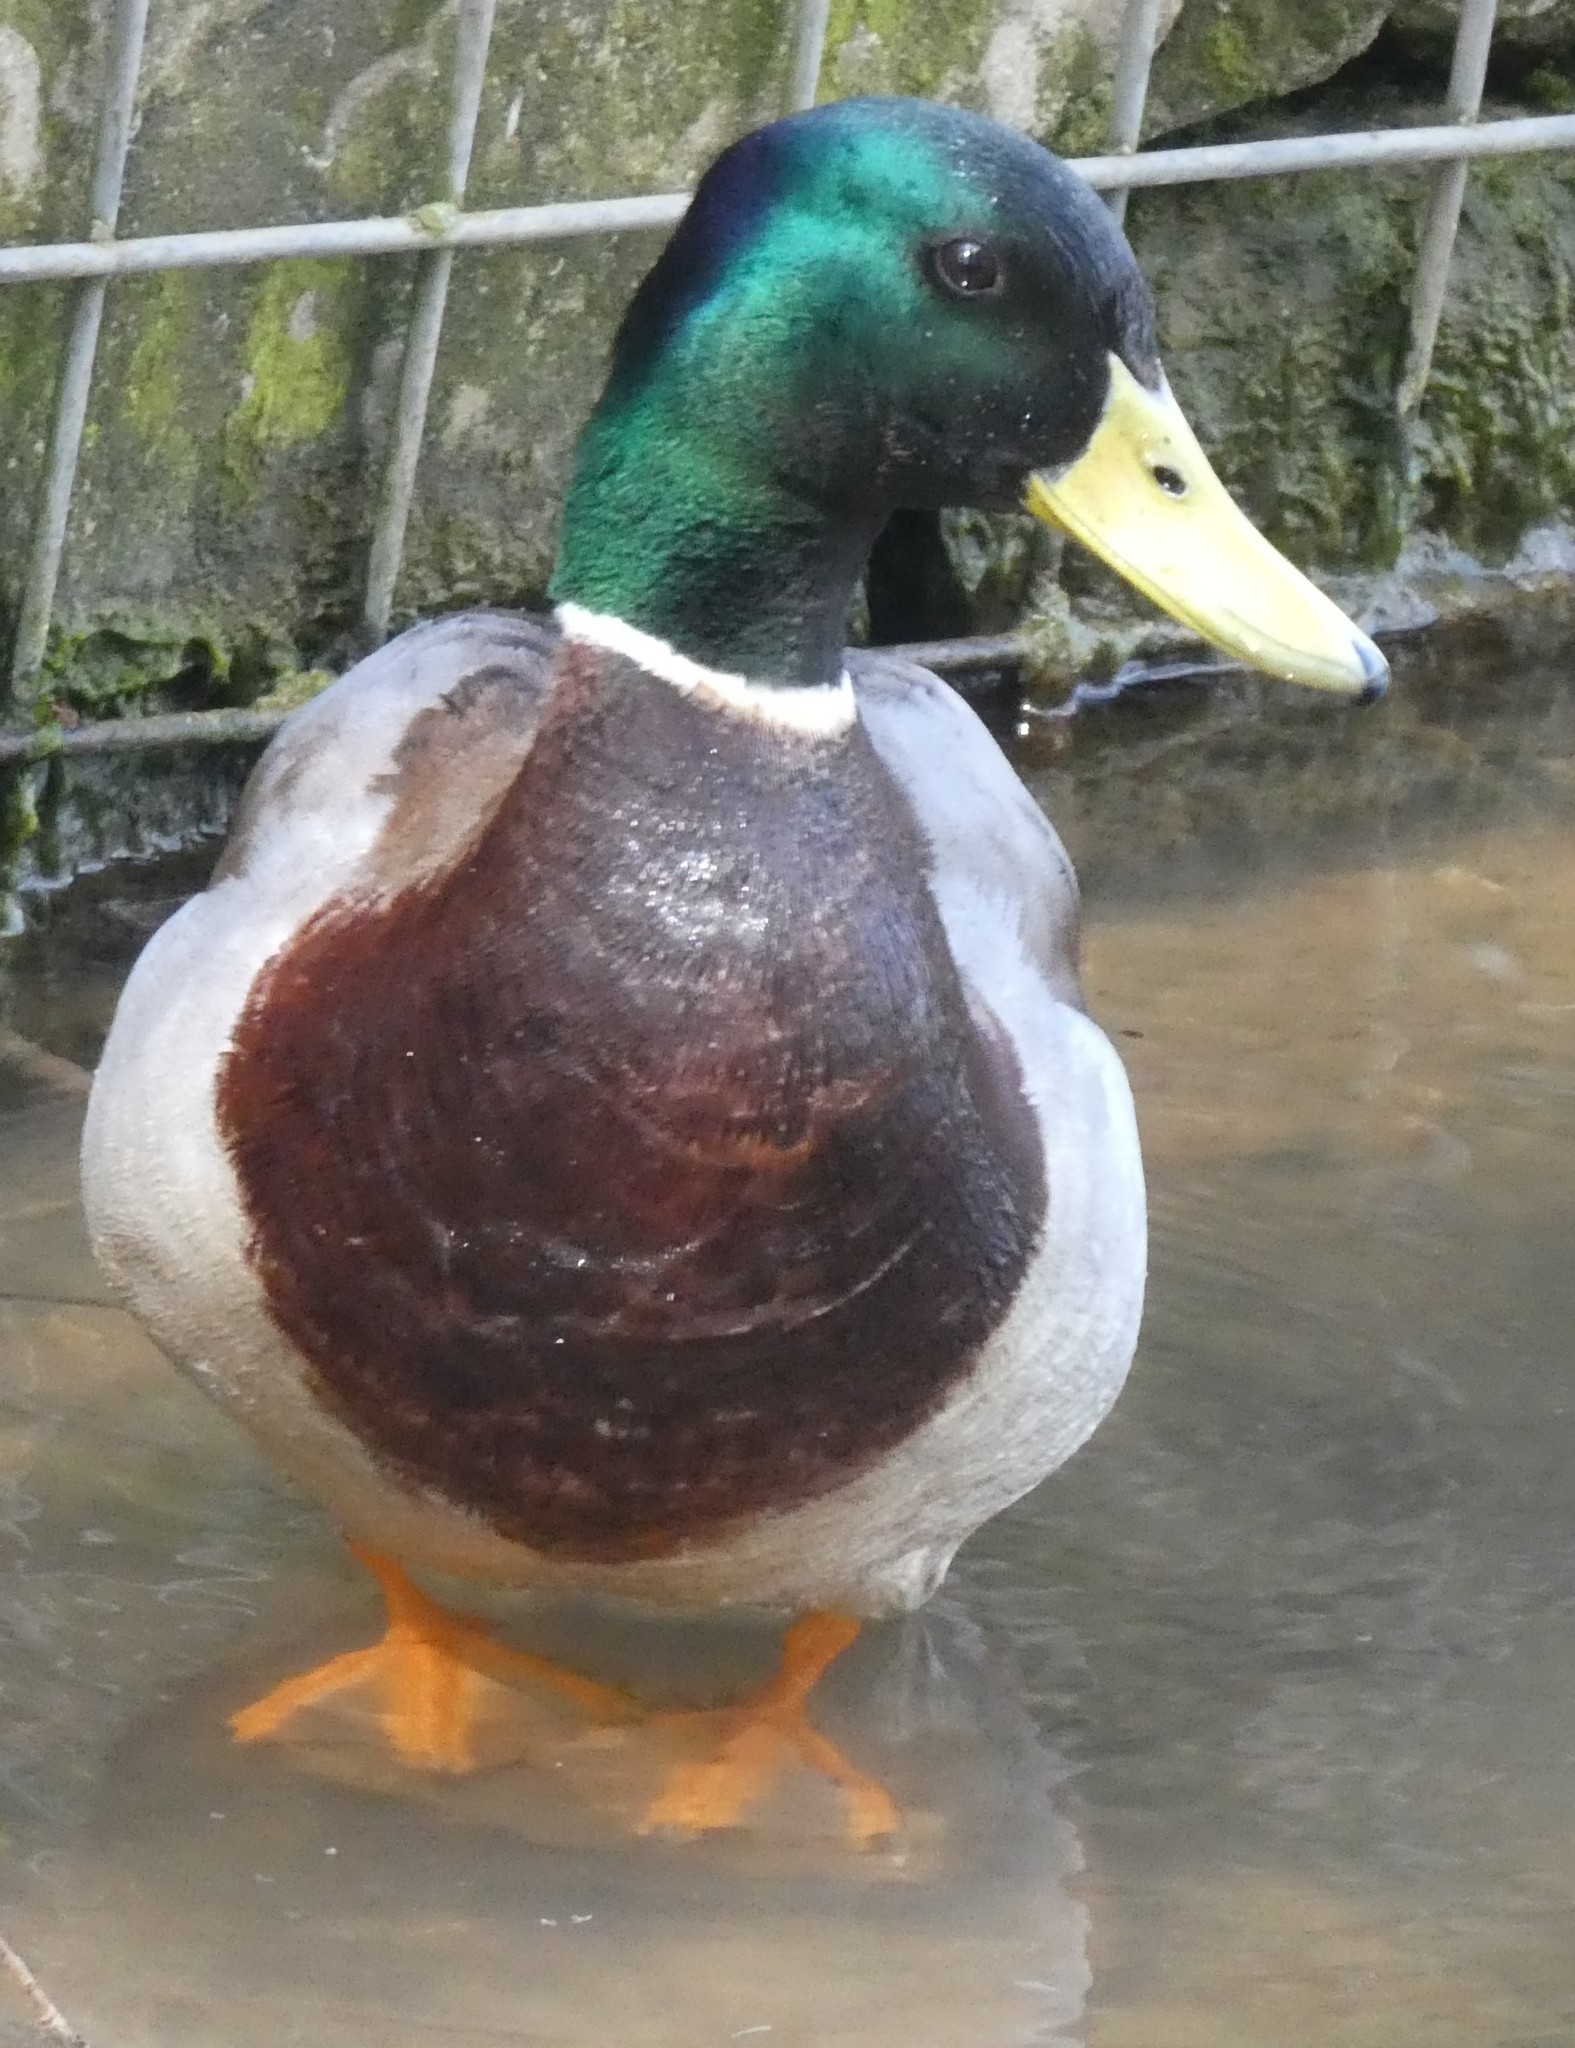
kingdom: Animalia
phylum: Chordata
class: Aves
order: Anseriformes
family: Anatidae
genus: Anas
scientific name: Anas platyrhynchos
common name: Mallard
